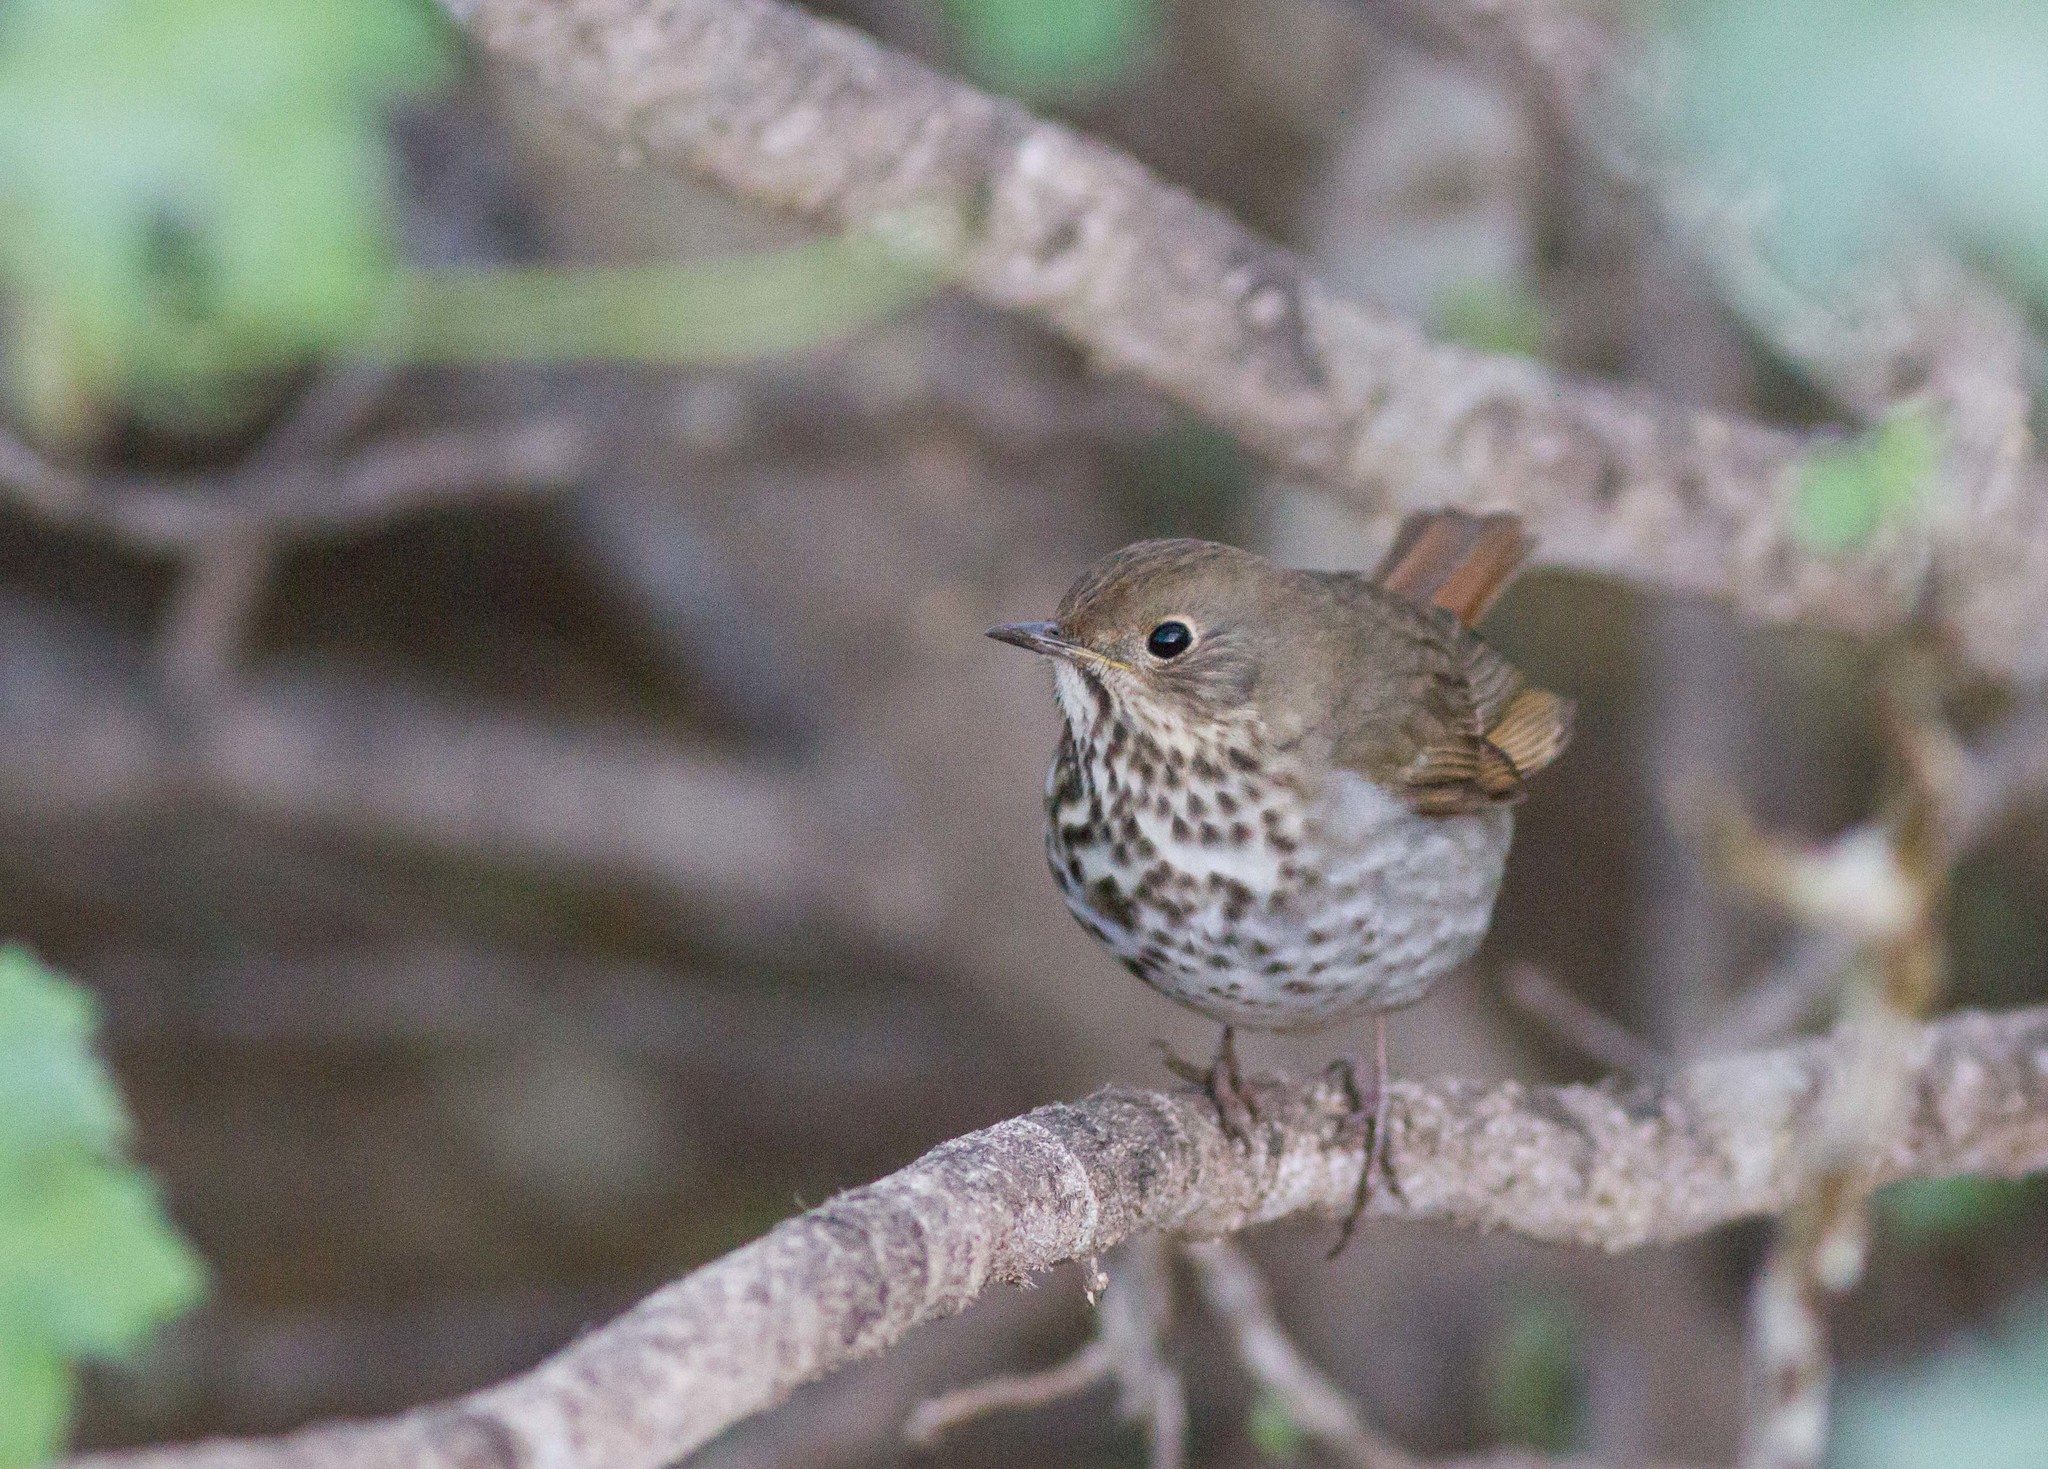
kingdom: Animalia
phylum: Chordata
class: Aves
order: Passeriformes
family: Turdidae
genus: Catharus
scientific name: Catharus guttatus
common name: Hermit thrush
